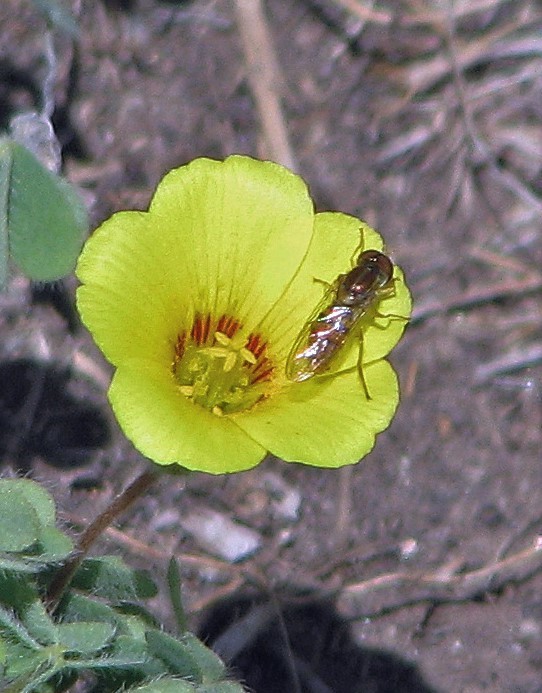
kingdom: Animalia
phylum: Arthropoda
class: Insecta
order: Diptera
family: Syrphidae
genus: Toxomerus
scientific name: Toxomerus
